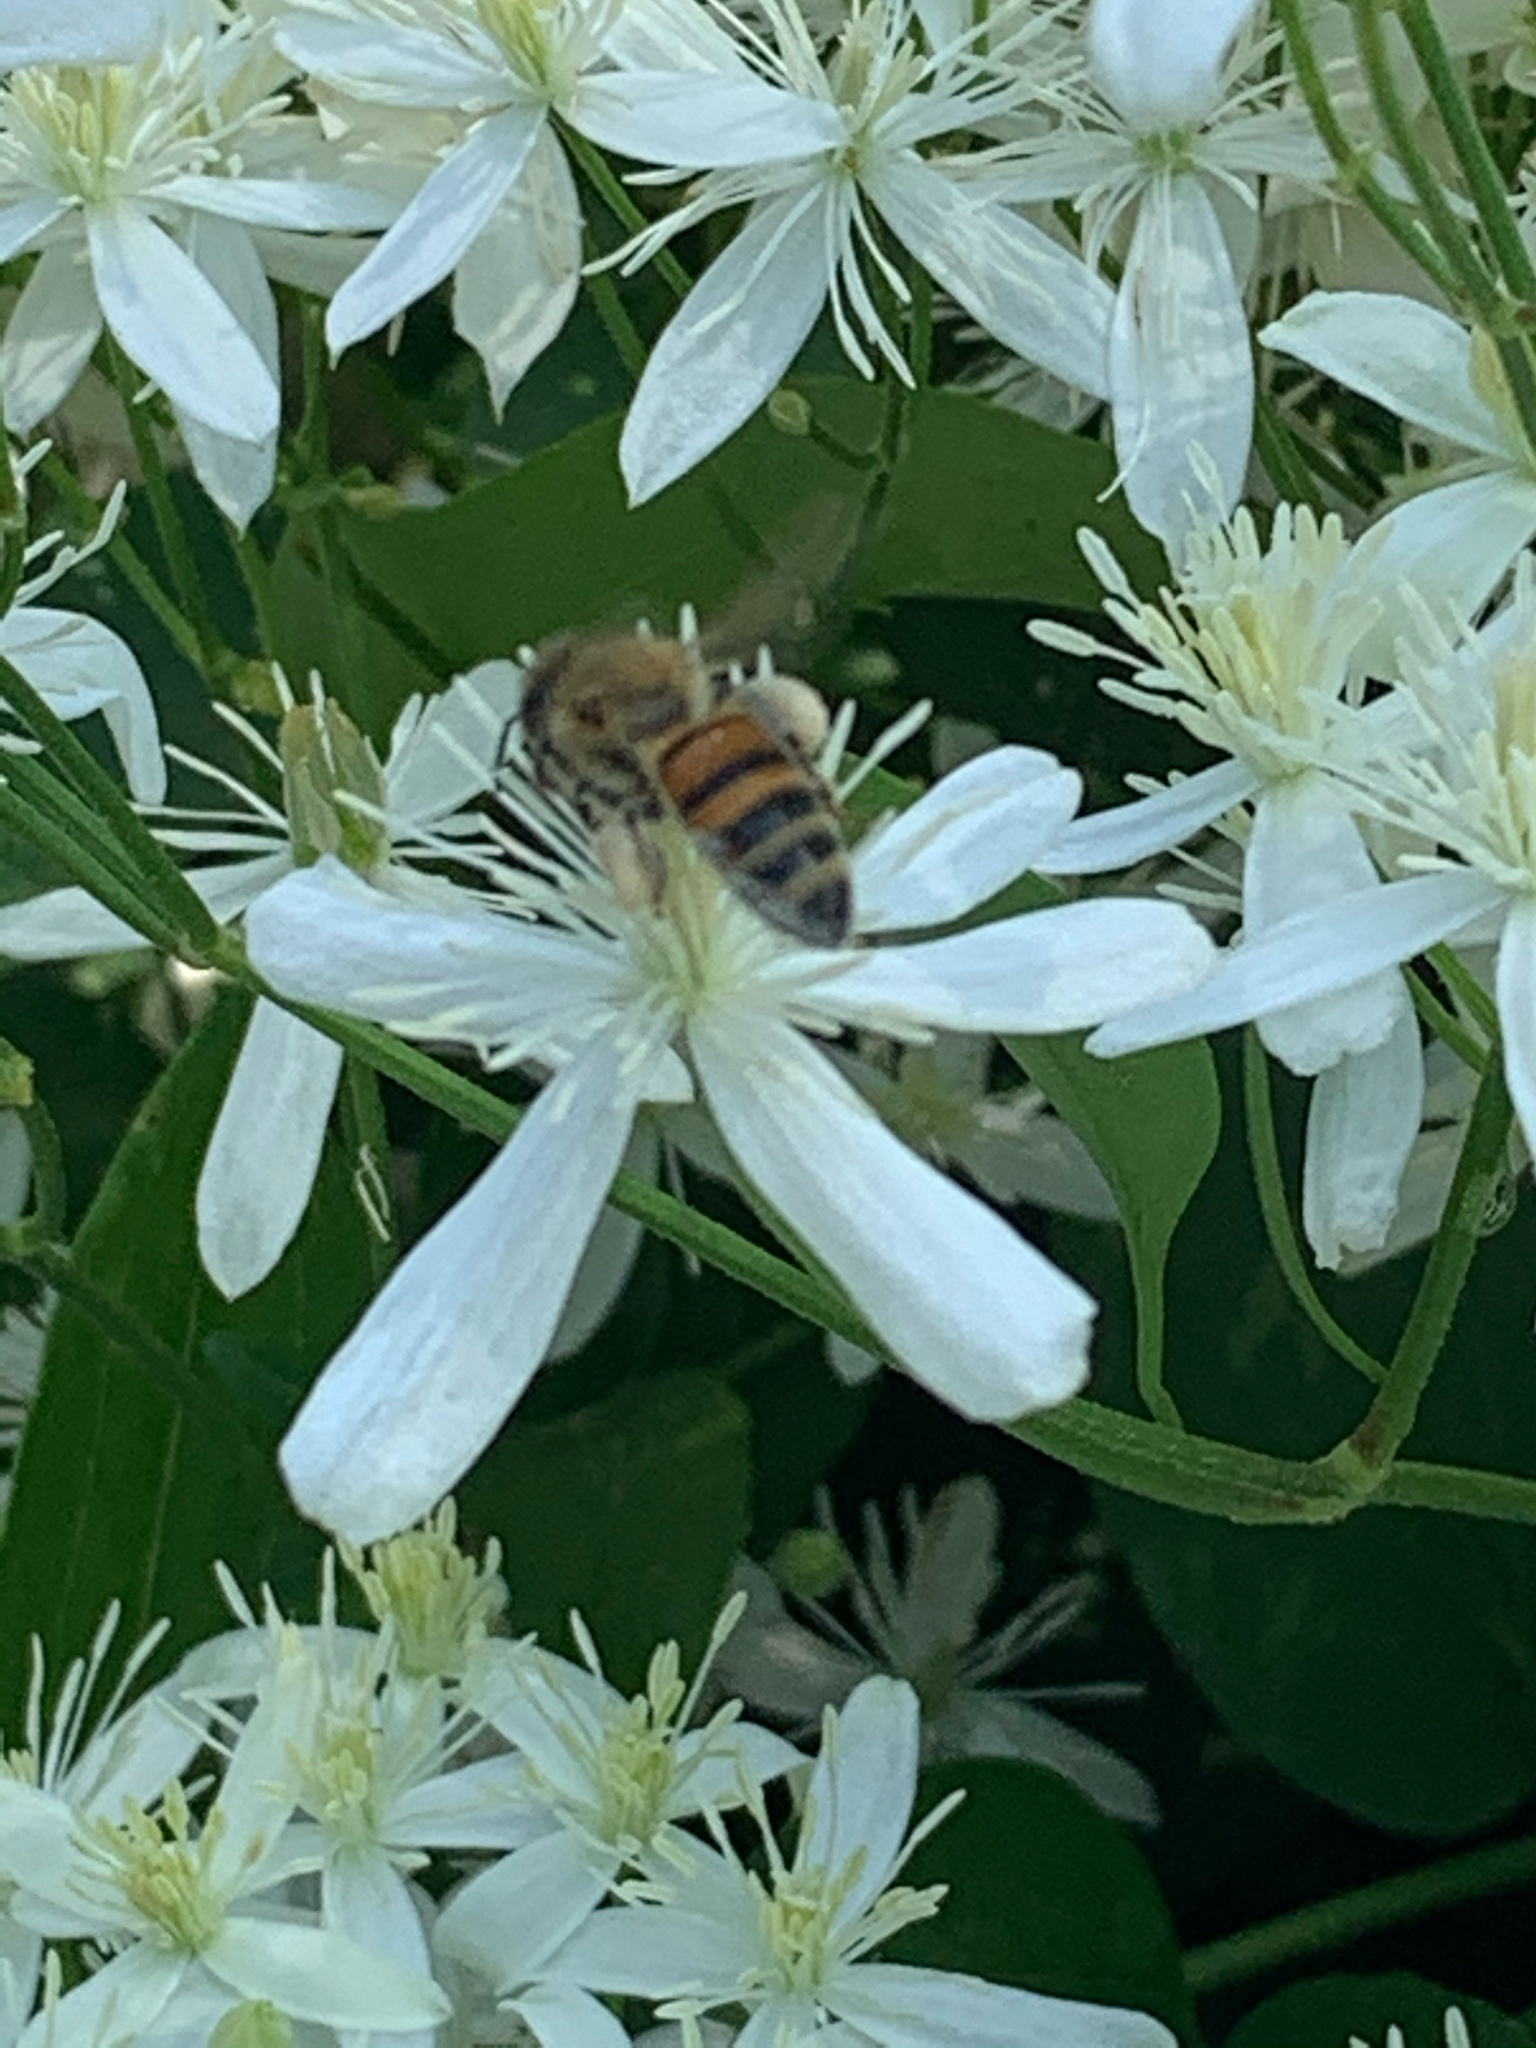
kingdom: Animalia
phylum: Arthropoda
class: Insecta
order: Hymenoptera
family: Apidae
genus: Apis
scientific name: Apis mellifera
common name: Honey bee
